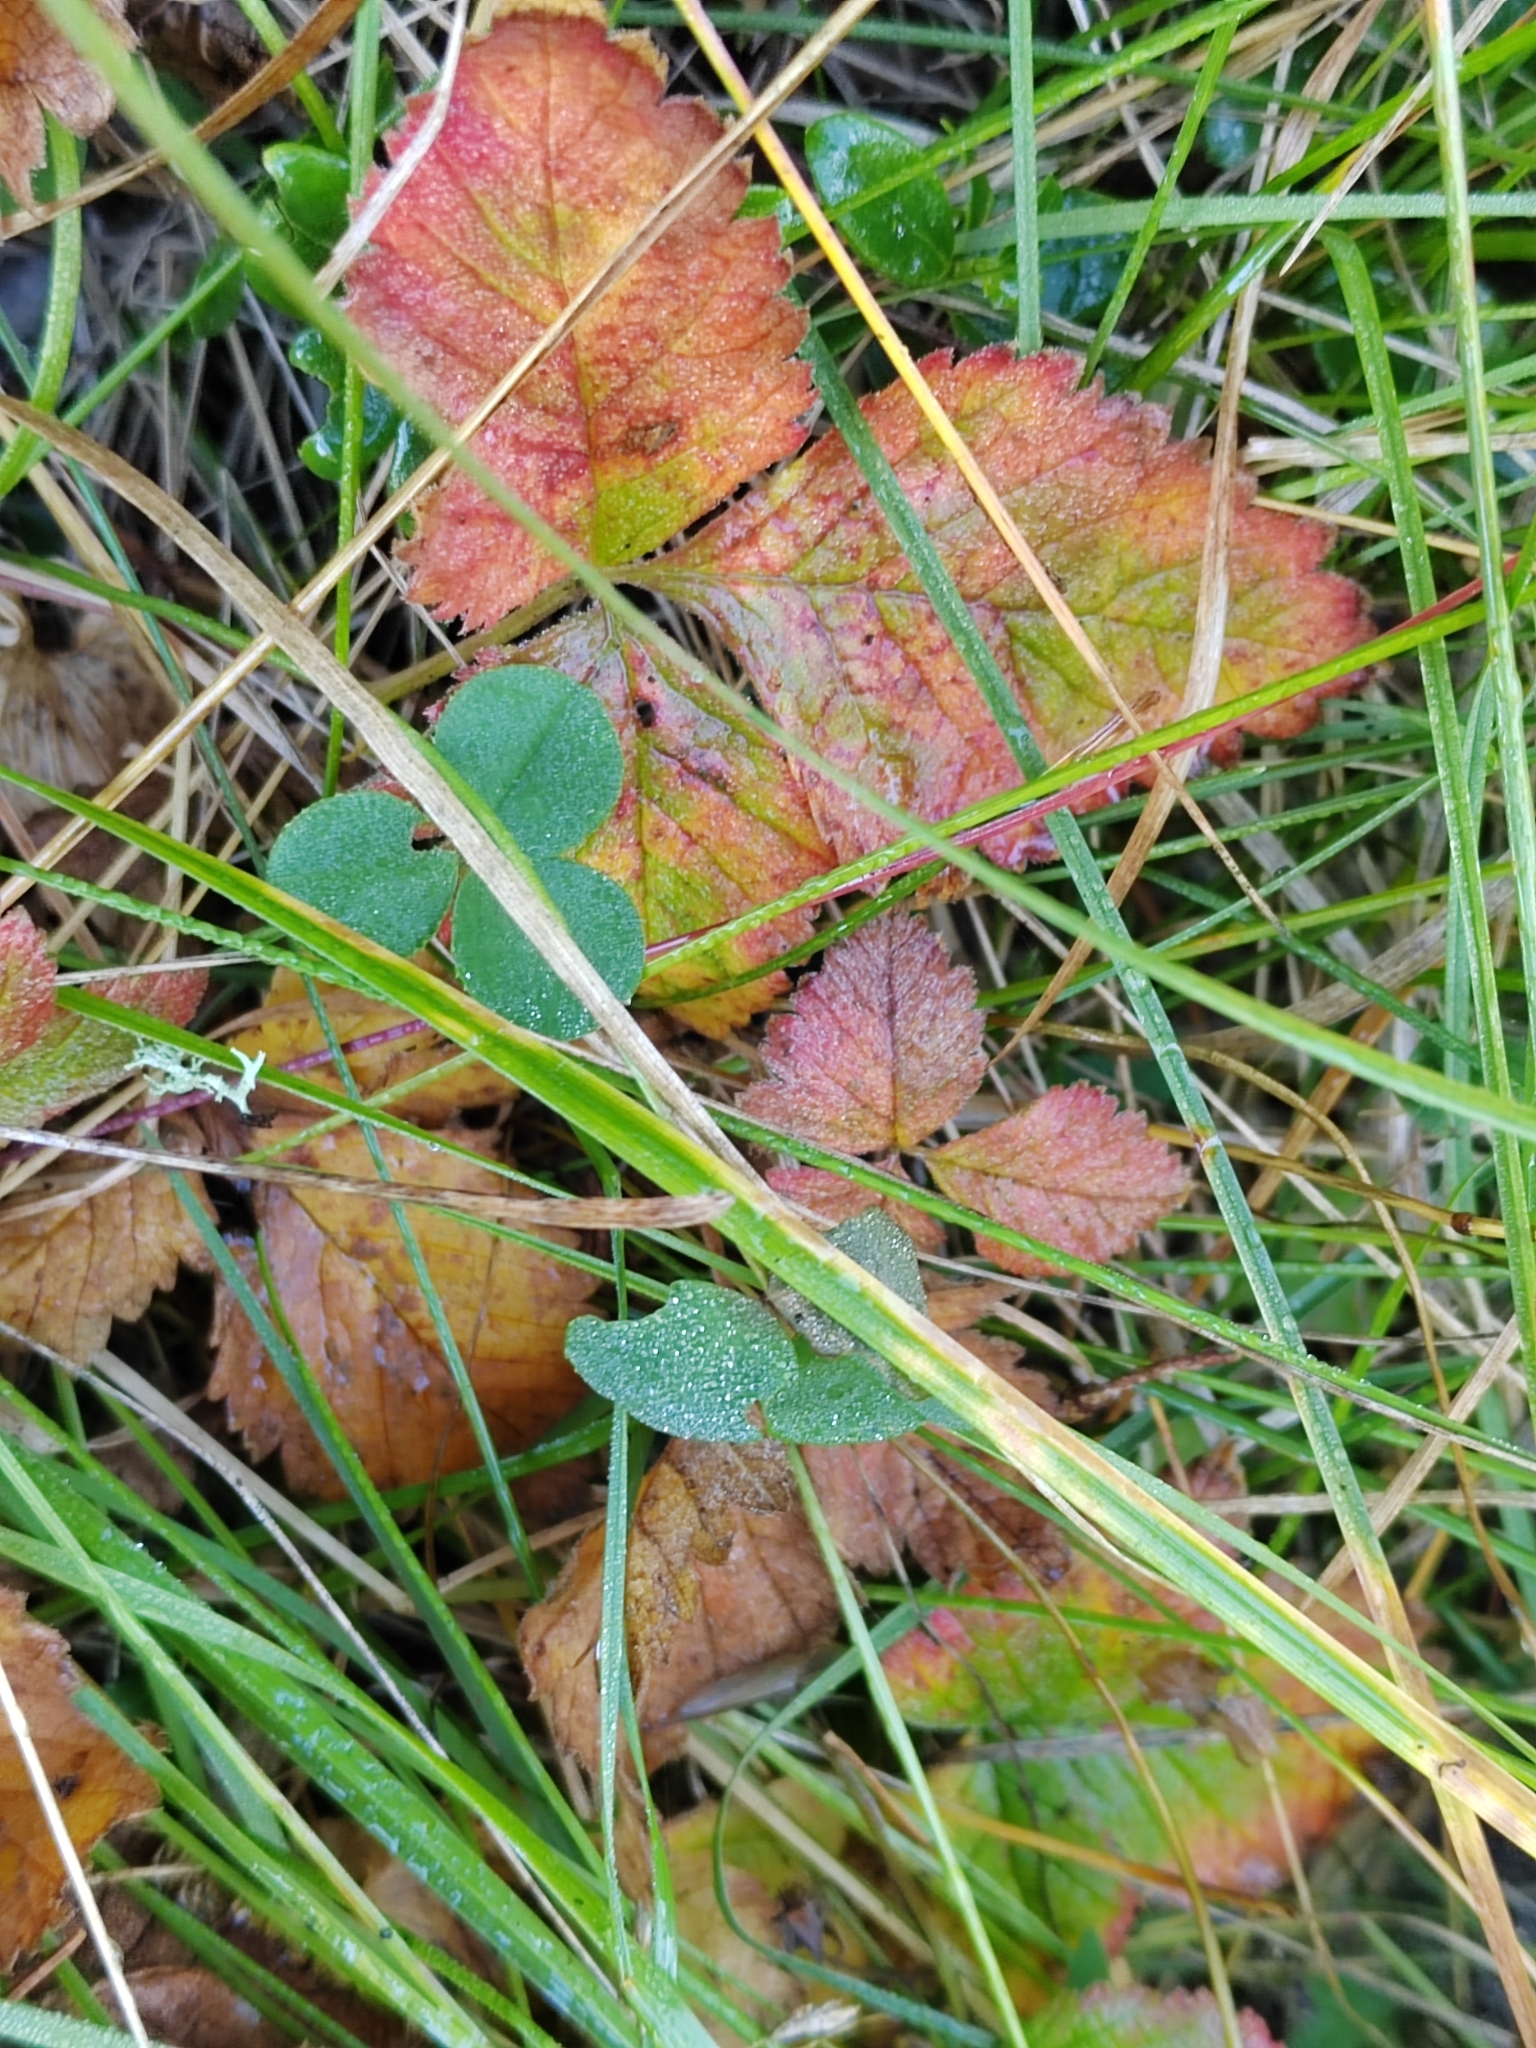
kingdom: Plantae
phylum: Tracheophyta
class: Magnoliopsida
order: Rosales
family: Rosaceae
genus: Rubus
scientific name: Rubus arcticus
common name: Arctic bramble
